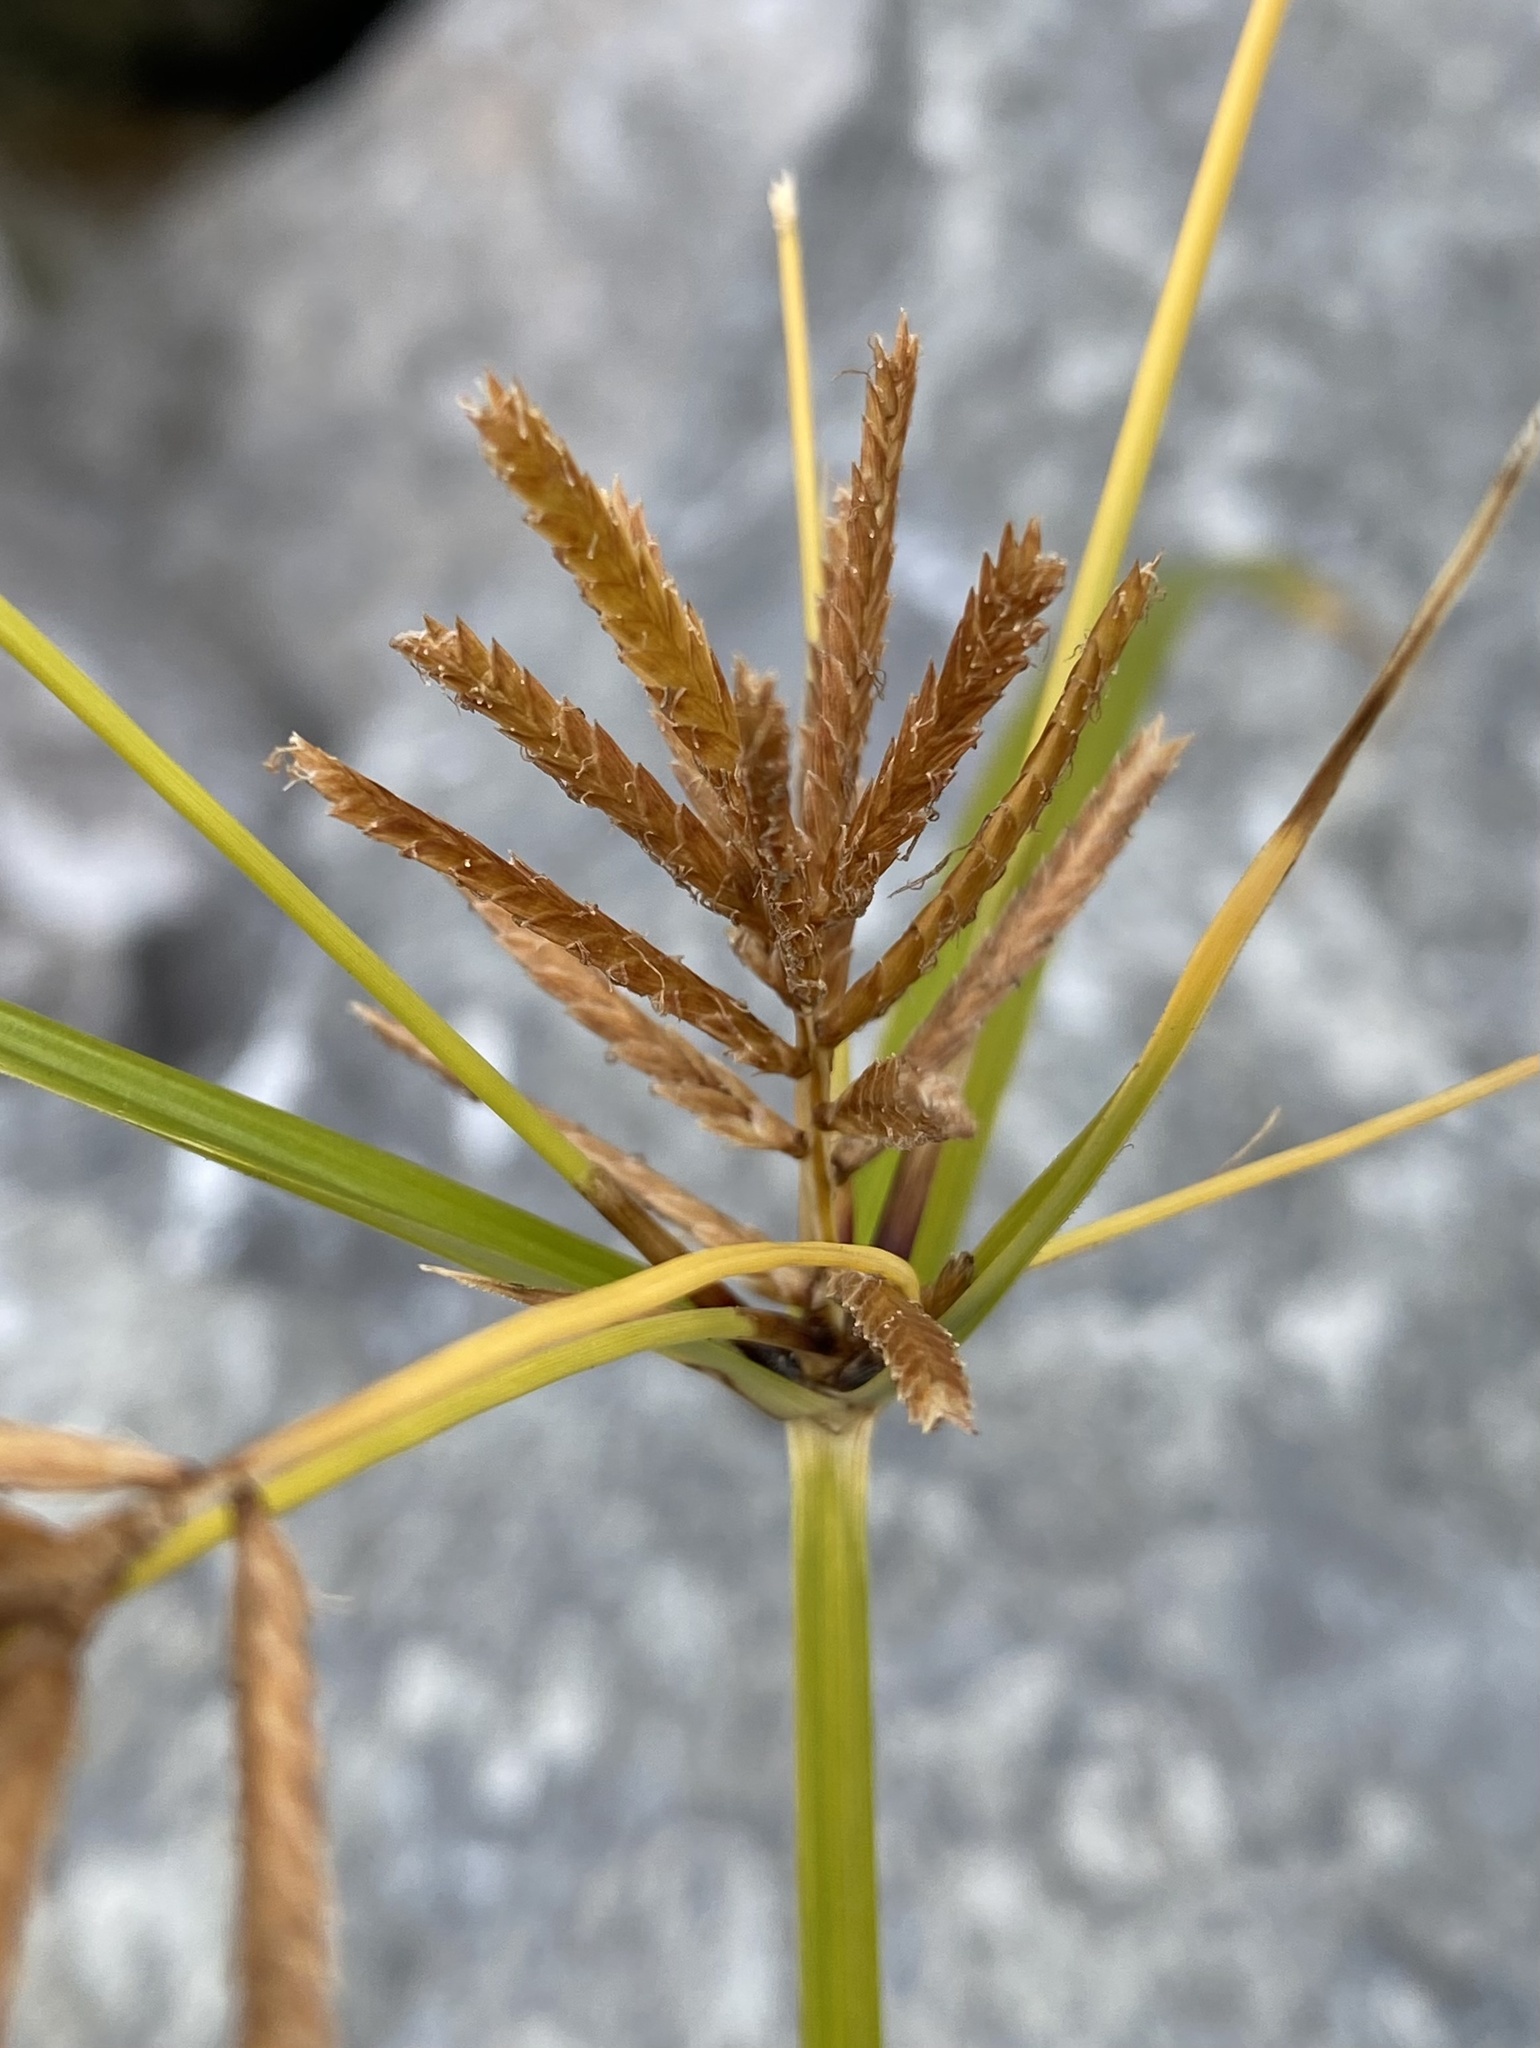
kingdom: Plantae
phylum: Tracheophyta
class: Liliopsida
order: Poales
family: Cyperaceae
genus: Cyperus
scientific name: Cyperus esculentus
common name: Yellow nutsedge
